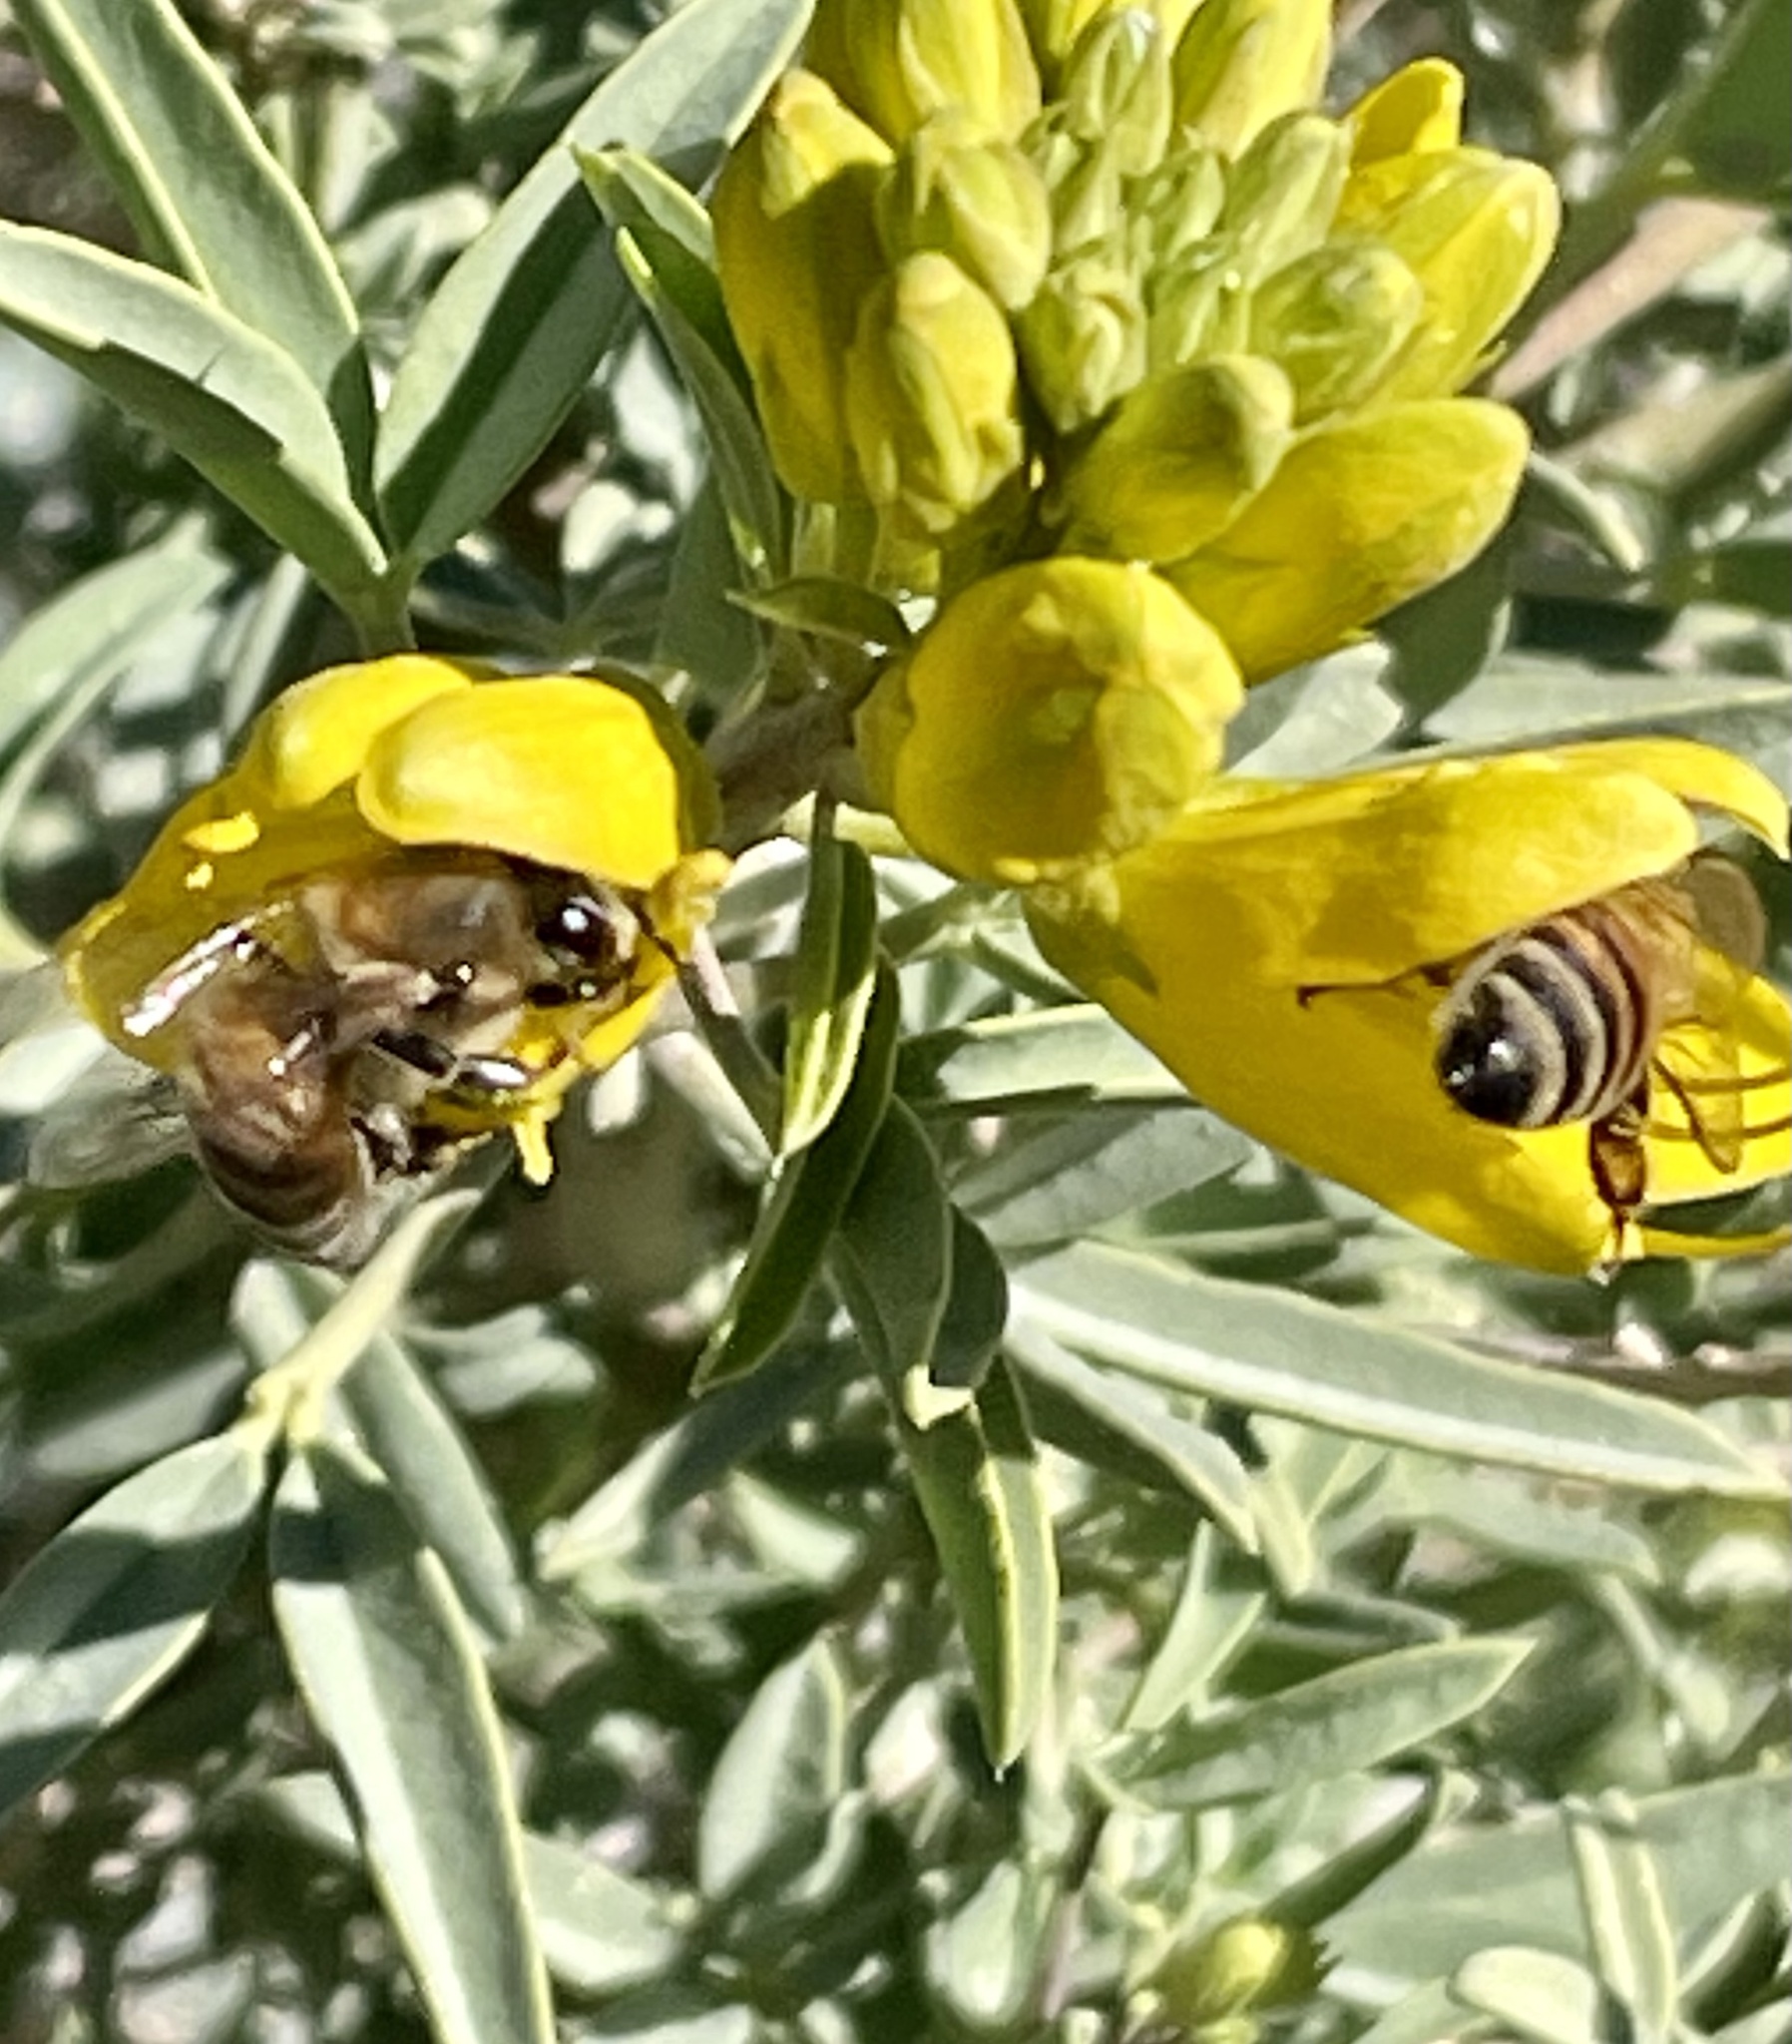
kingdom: Animalia
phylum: Arthropoda
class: Insecta
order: Hymenoptera
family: Apidae
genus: Apis
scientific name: Apis mellifera
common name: Honey bee
